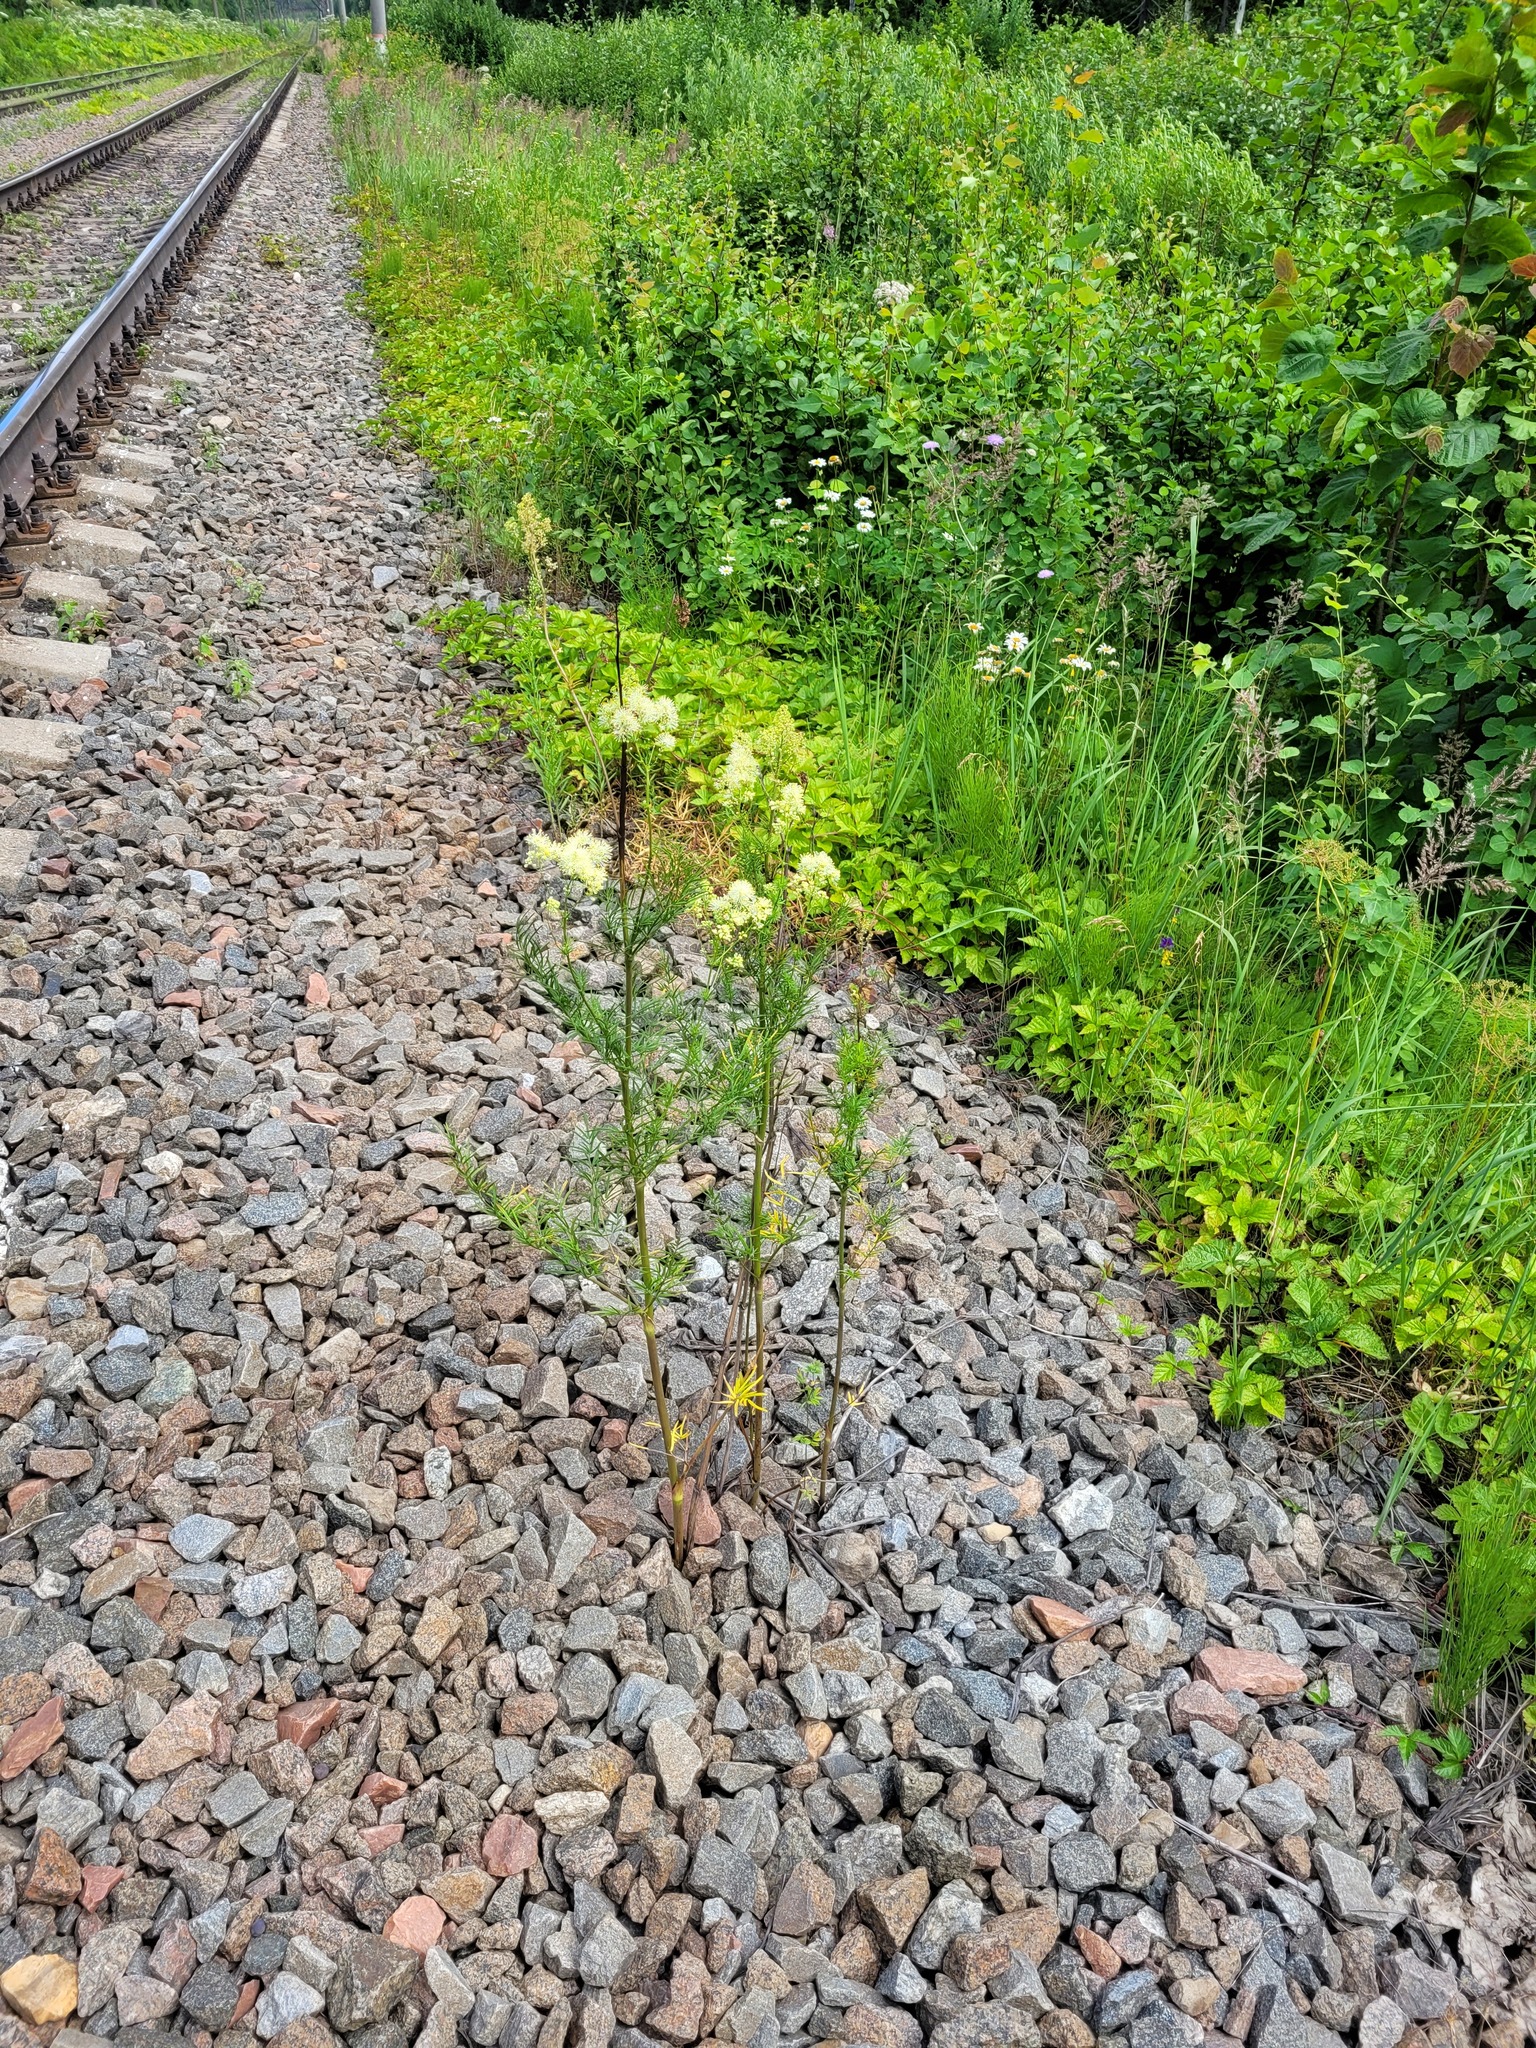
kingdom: Plantae
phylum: Tracheophyta
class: Magnoliopsida
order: Ranunculales
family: Ranunculaceae
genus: Thalictrum
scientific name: Thalictrum lucidum
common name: Shining meadow-rue
